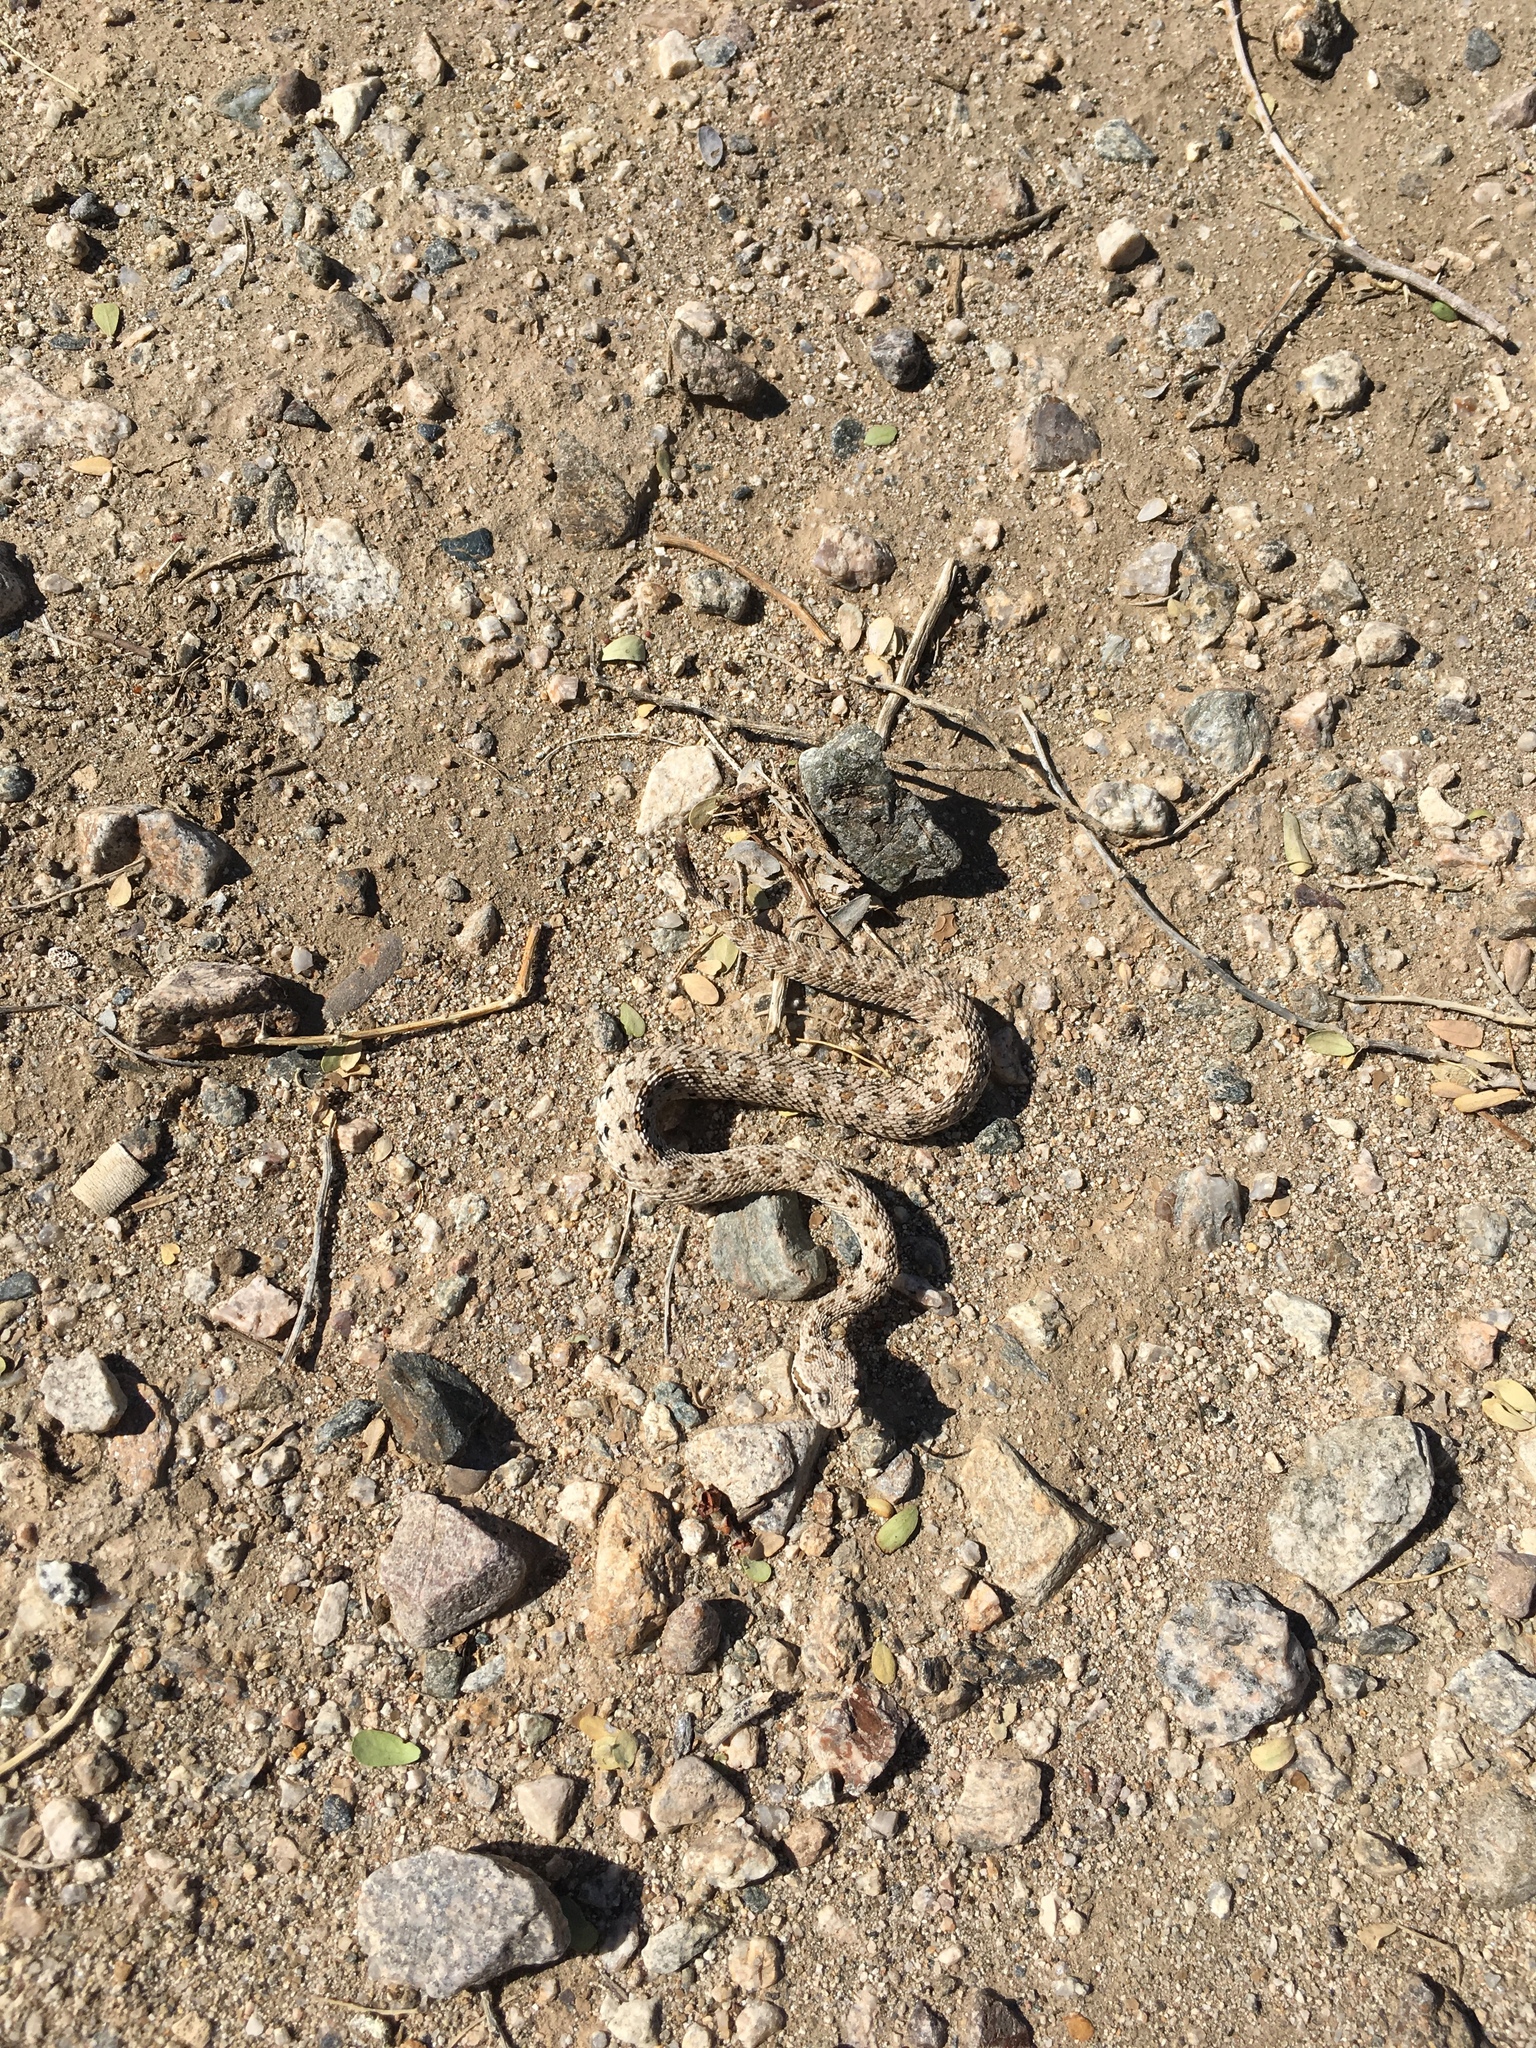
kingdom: Animalia
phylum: Chordata
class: Squamata
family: Viperidae
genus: Crotalus
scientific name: Crotalus cerastes
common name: Sidewinder
